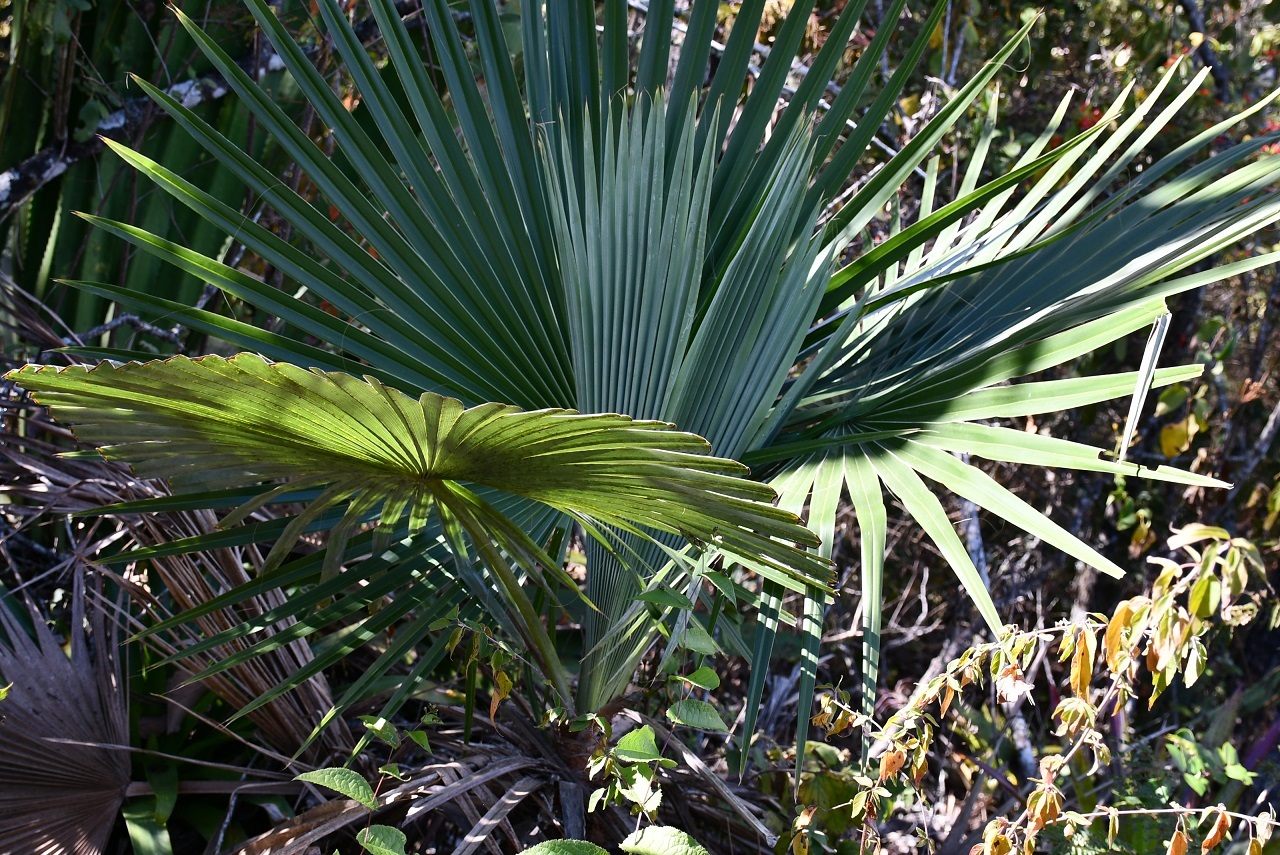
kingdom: Plantae
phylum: Tracheophyta
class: Liliopsida
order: Arecales
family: Arecaceae
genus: Brahea
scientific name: Brahea nitida
